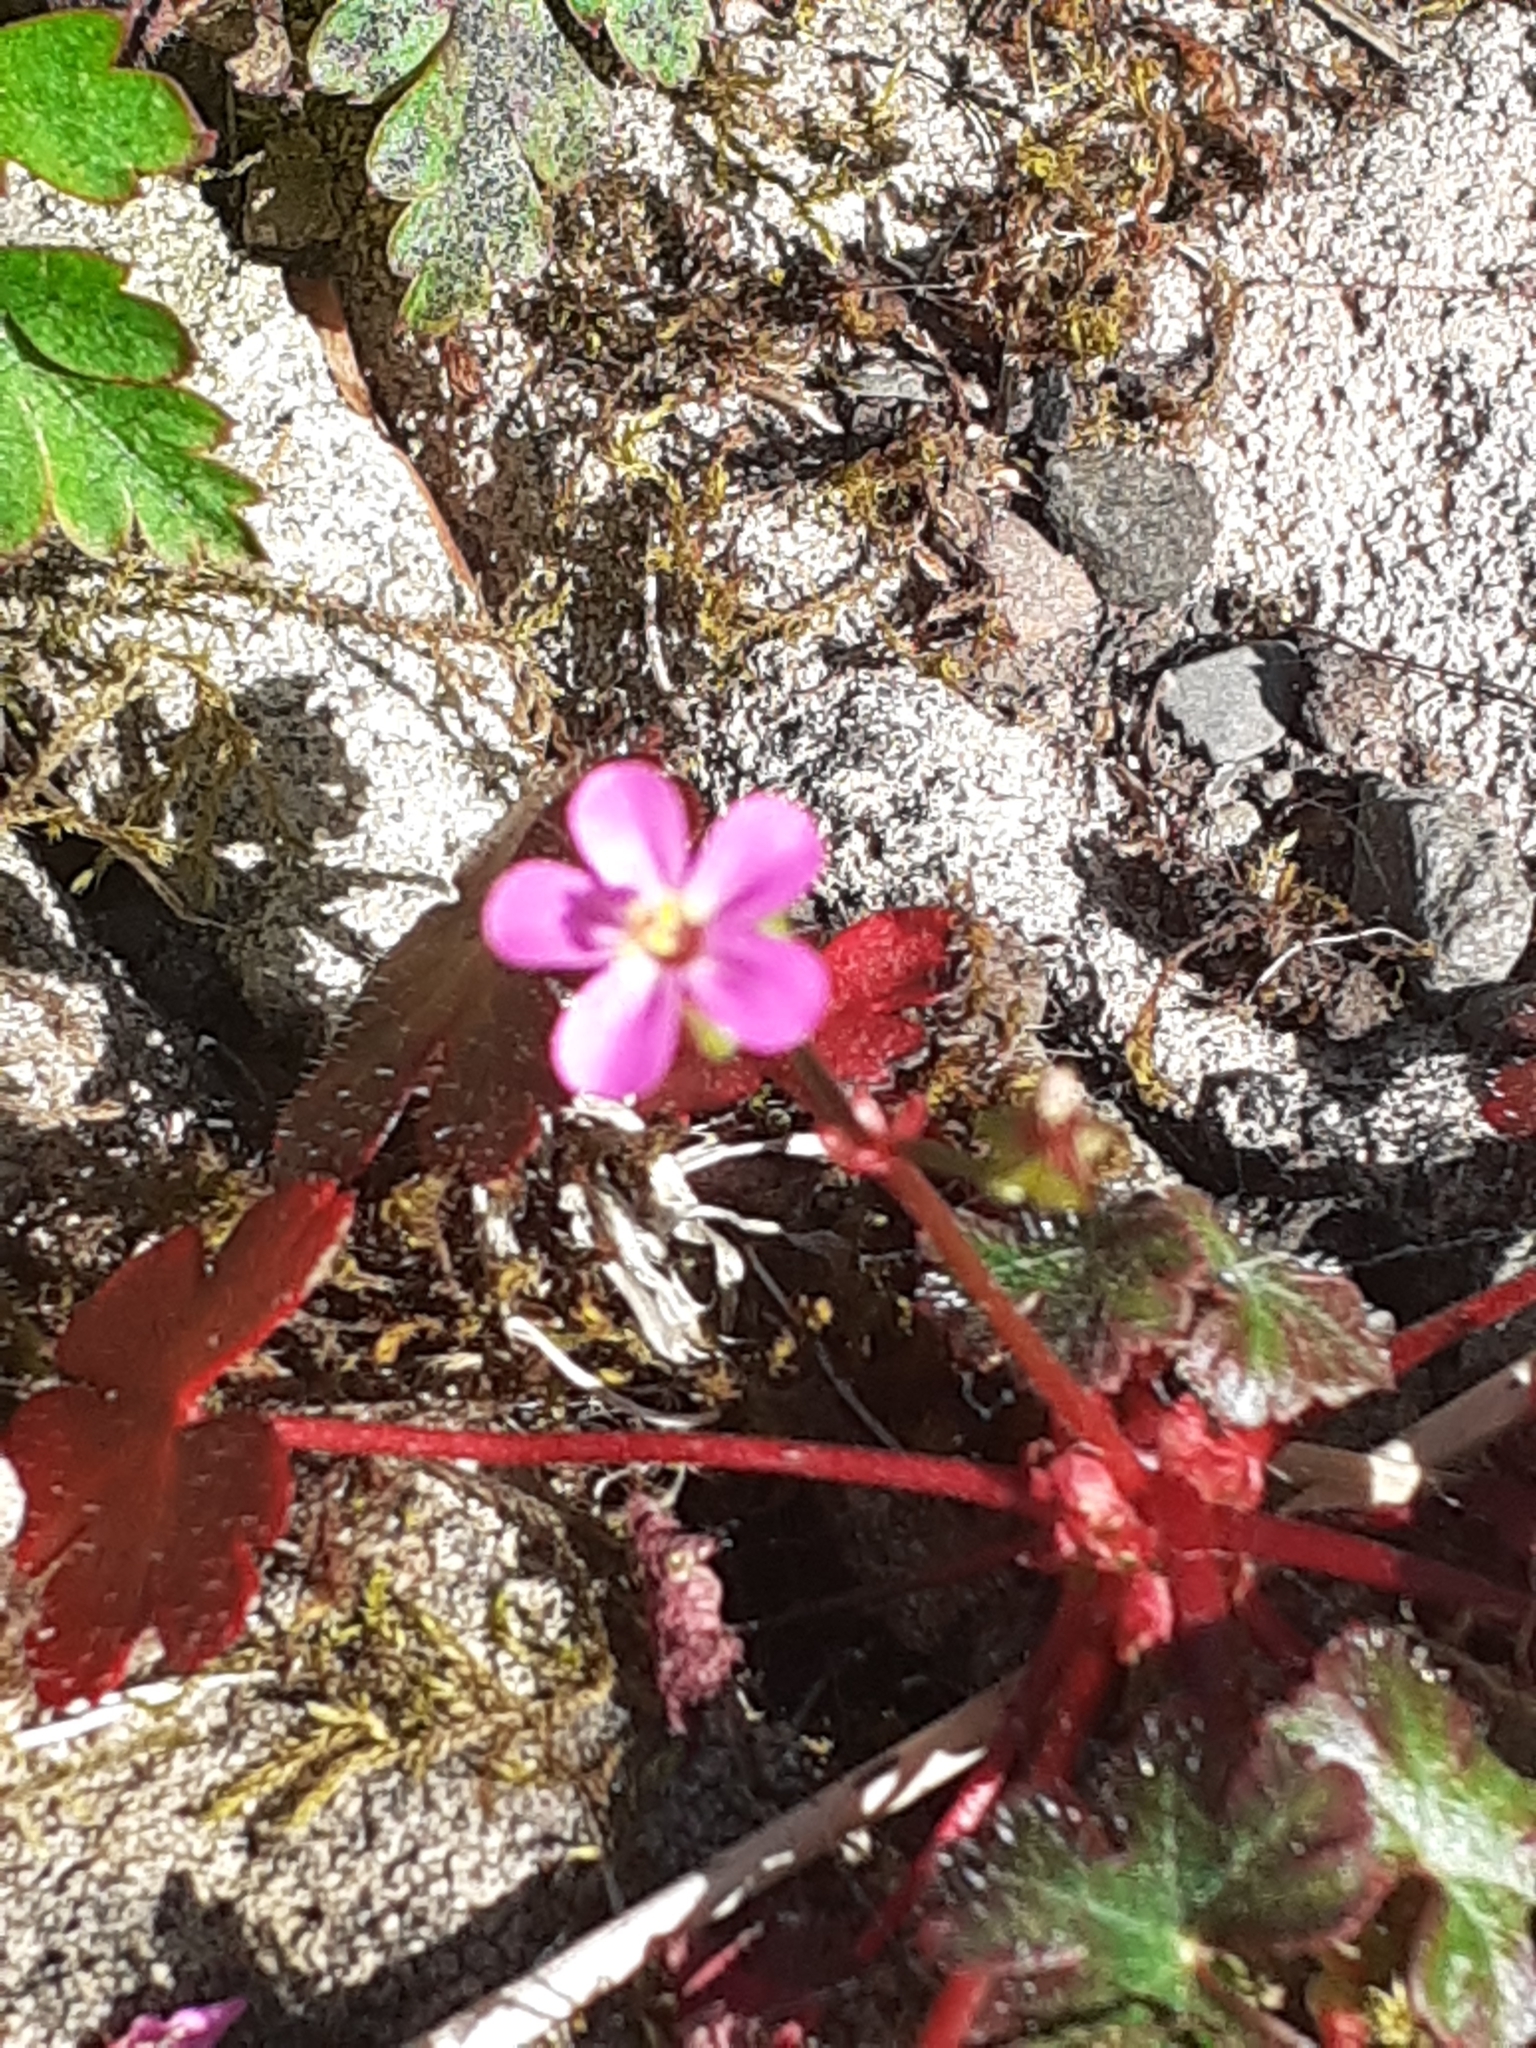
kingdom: Plantae
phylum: Tracheophyta
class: Magnoliopsida
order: Geraniales
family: Geraniaceae
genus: Geranium
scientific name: Geranium lucidum
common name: Shining crane's-bill
